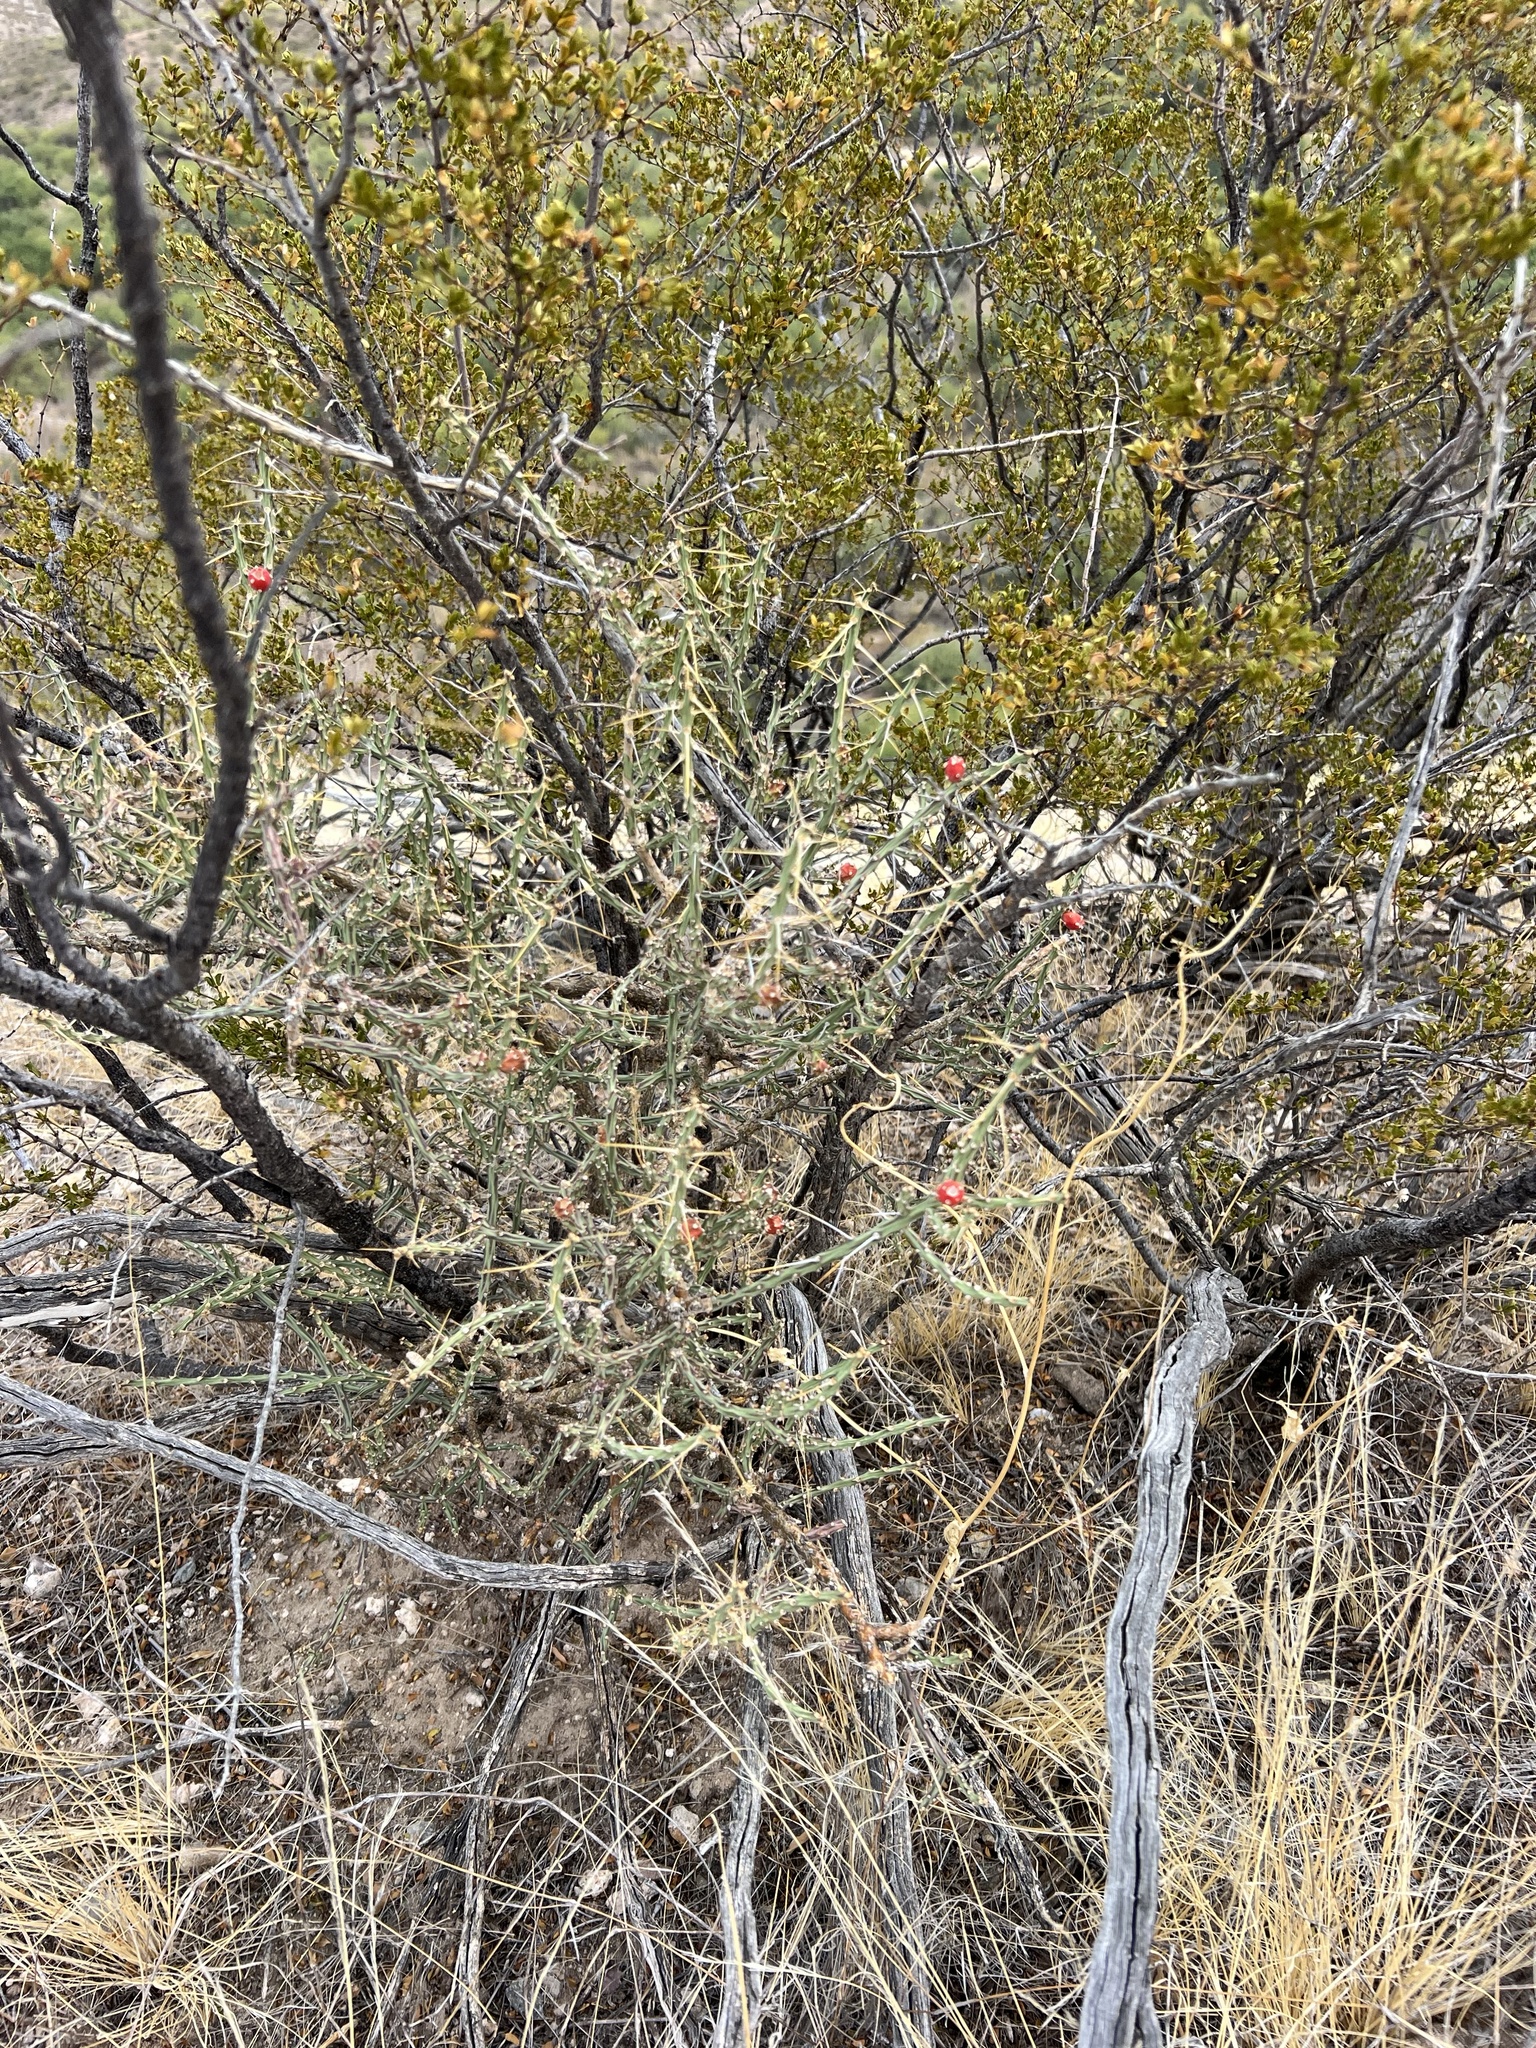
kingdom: Plantae
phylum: Tracheophyta
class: Magnoliopsida
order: Caryophyllales
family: Cactaceae
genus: Cylindropuntia
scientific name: Cylindropuntia leptocaulis
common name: Christmas cactus
